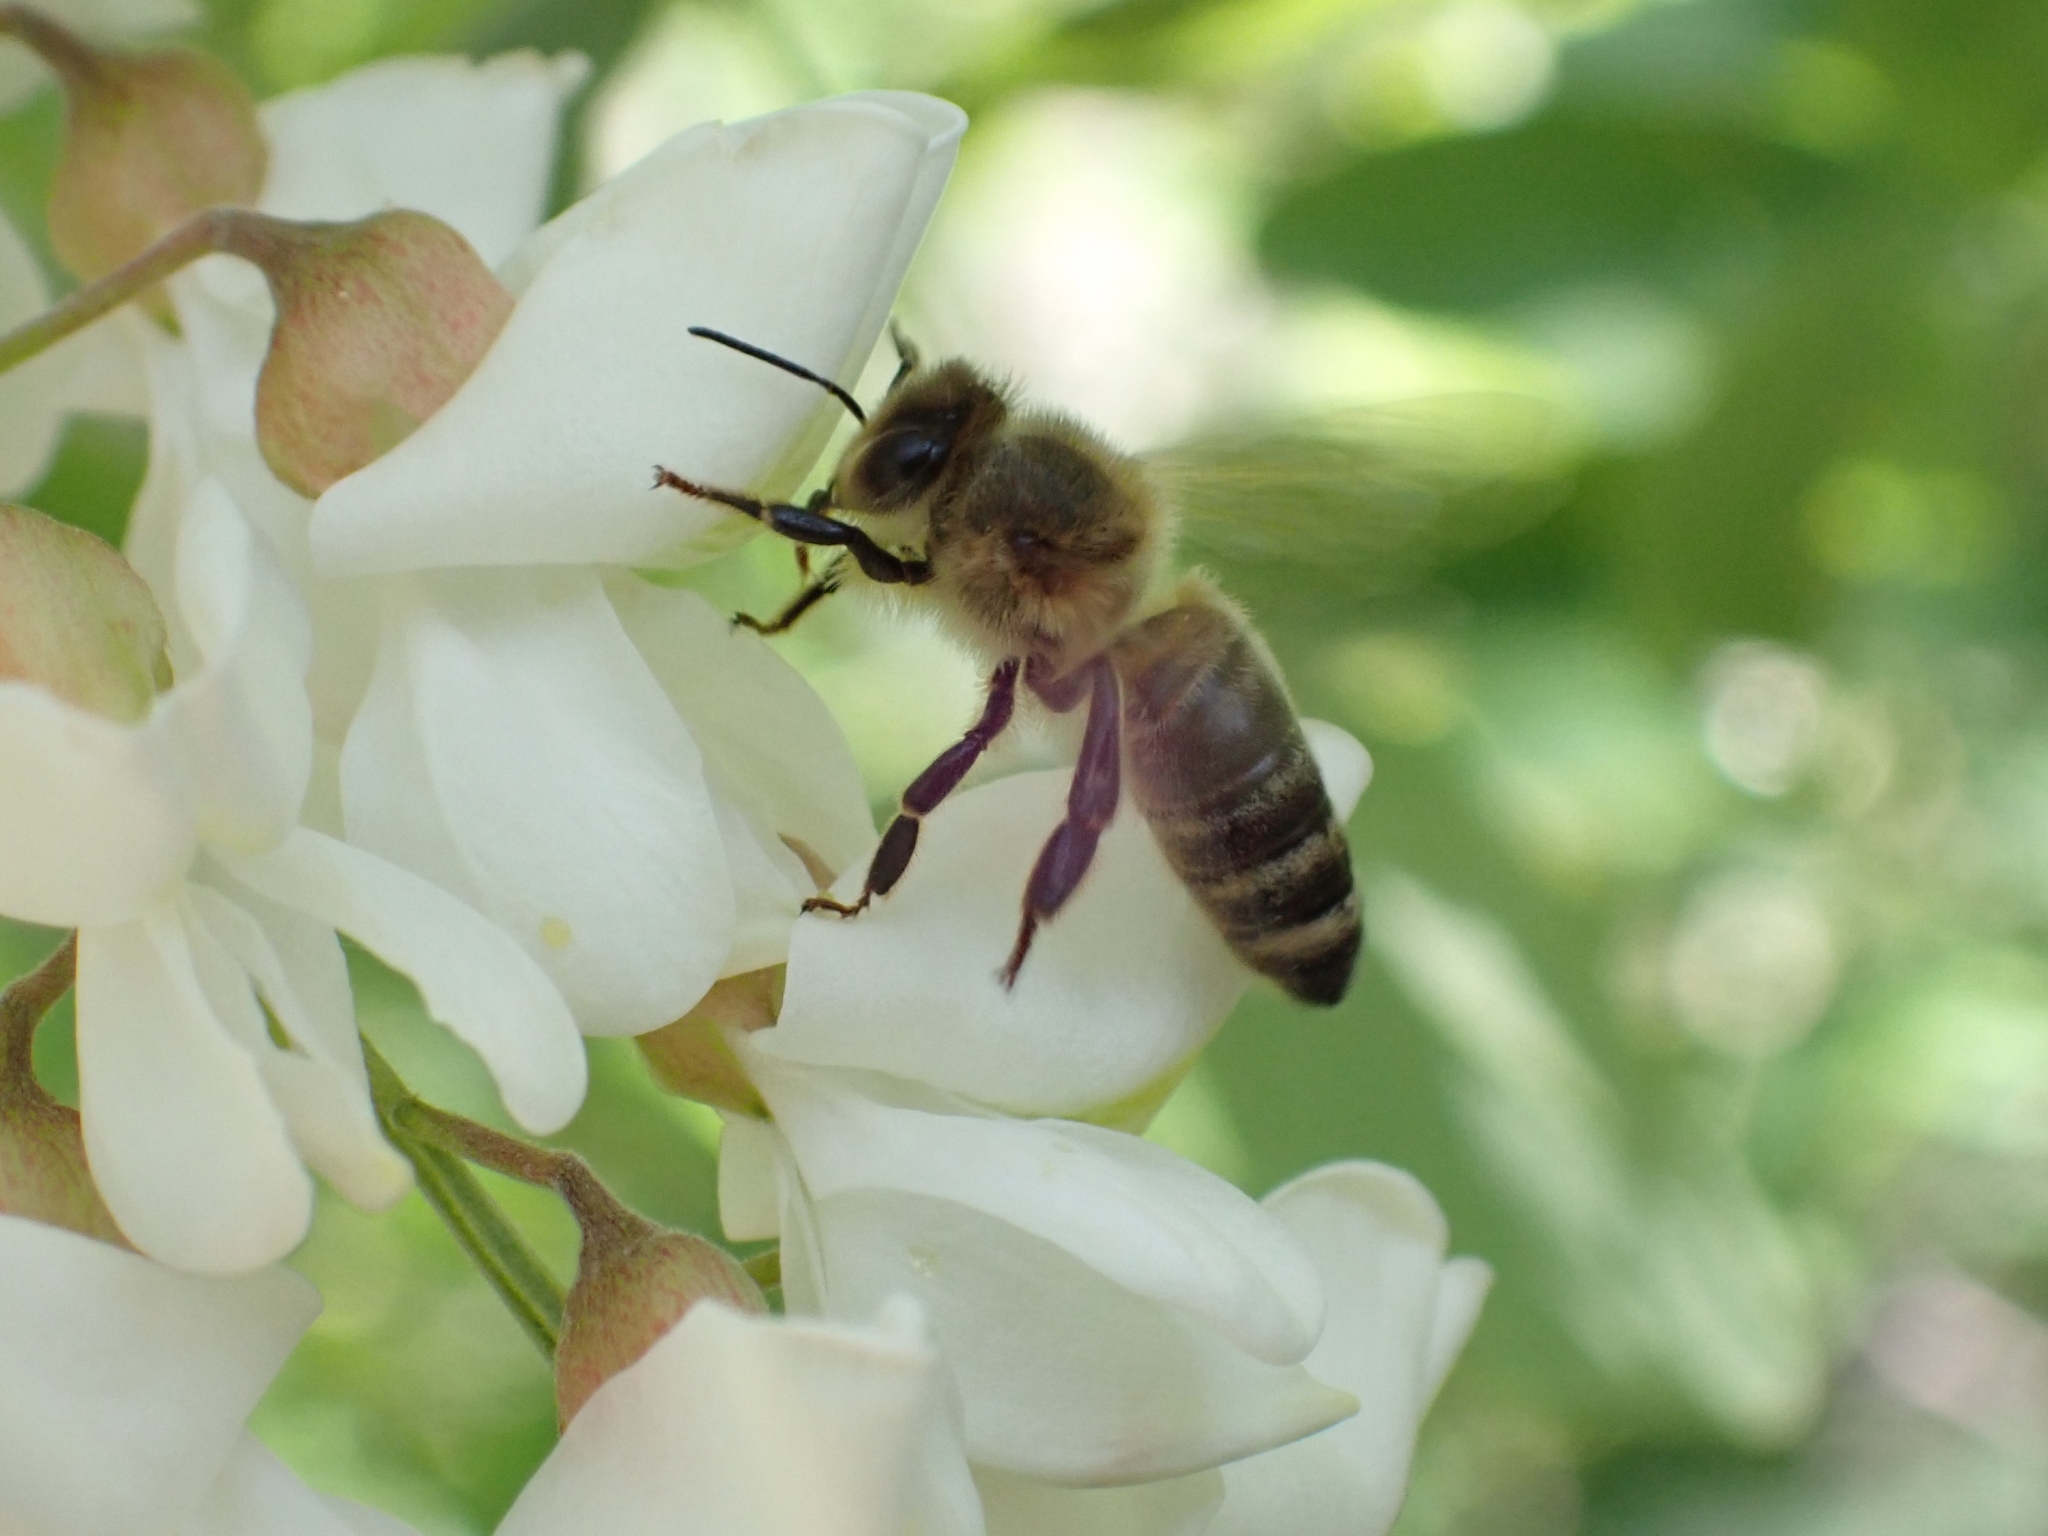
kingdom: Animalia
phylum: Arthropoda
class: Insecta
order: Hymenoptera
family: Apidae
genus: Apis
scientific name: Apis mellifera
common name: Honey bee
